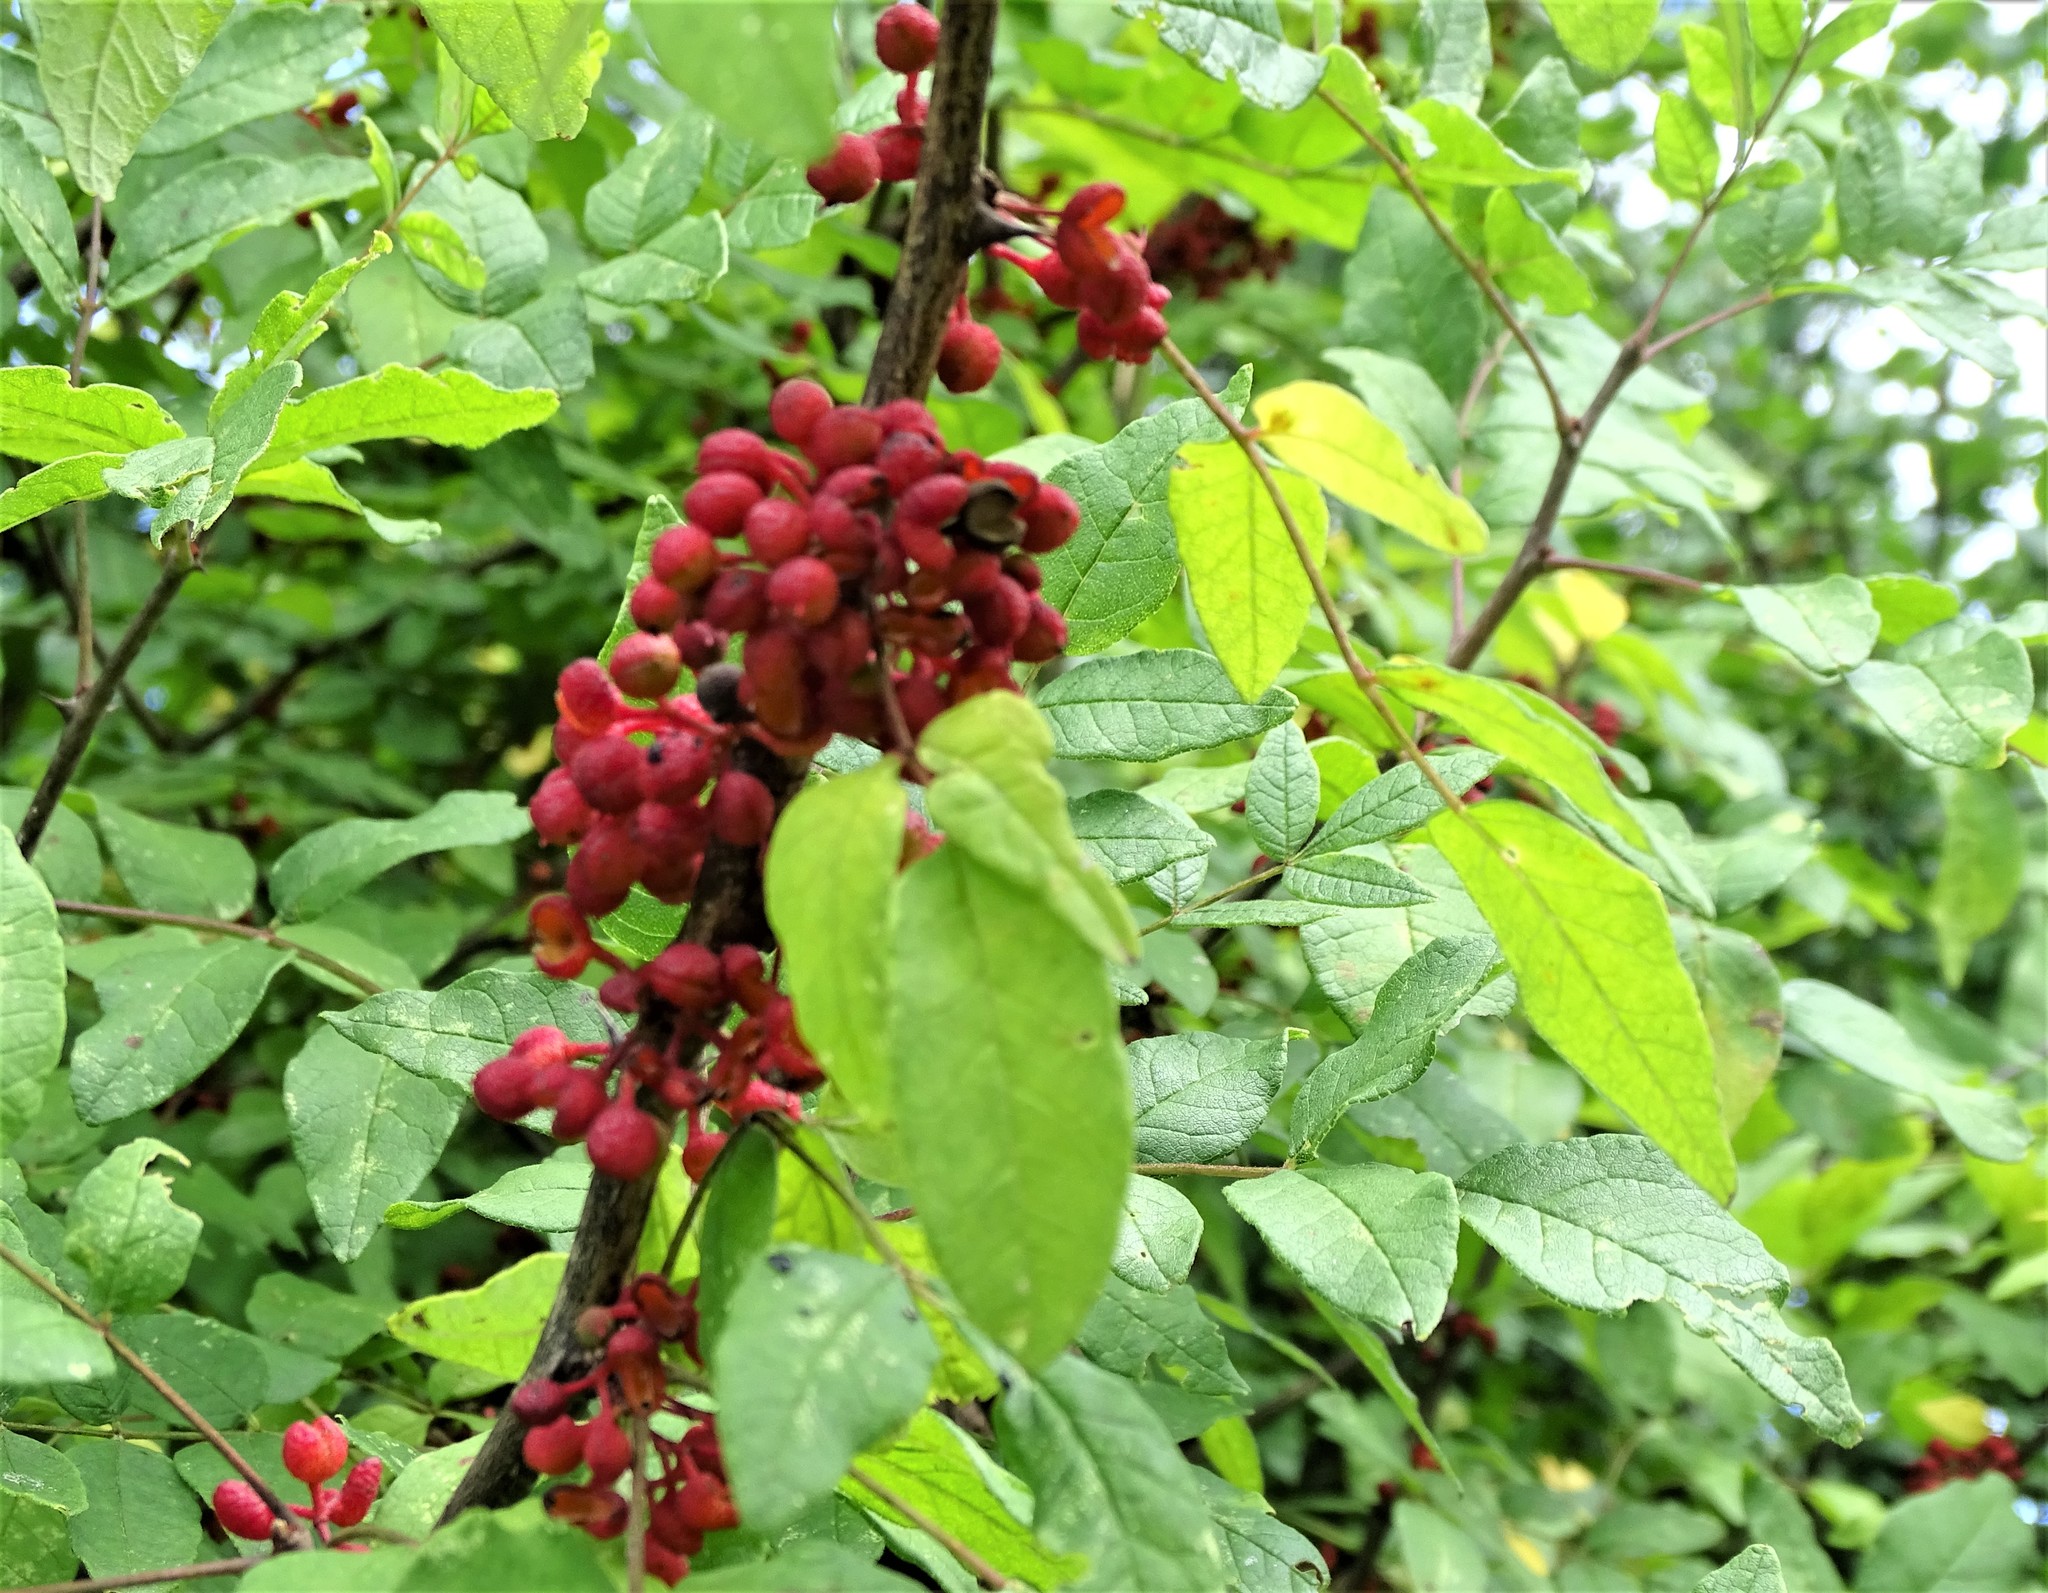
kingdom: Plantae
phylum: Tracheophyta
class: Magnoliopsida
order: Sapindales
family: Rutaceae
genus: Zanthoxylum
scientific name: Zanthoxylum americanum
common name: Northern prickly-ash
